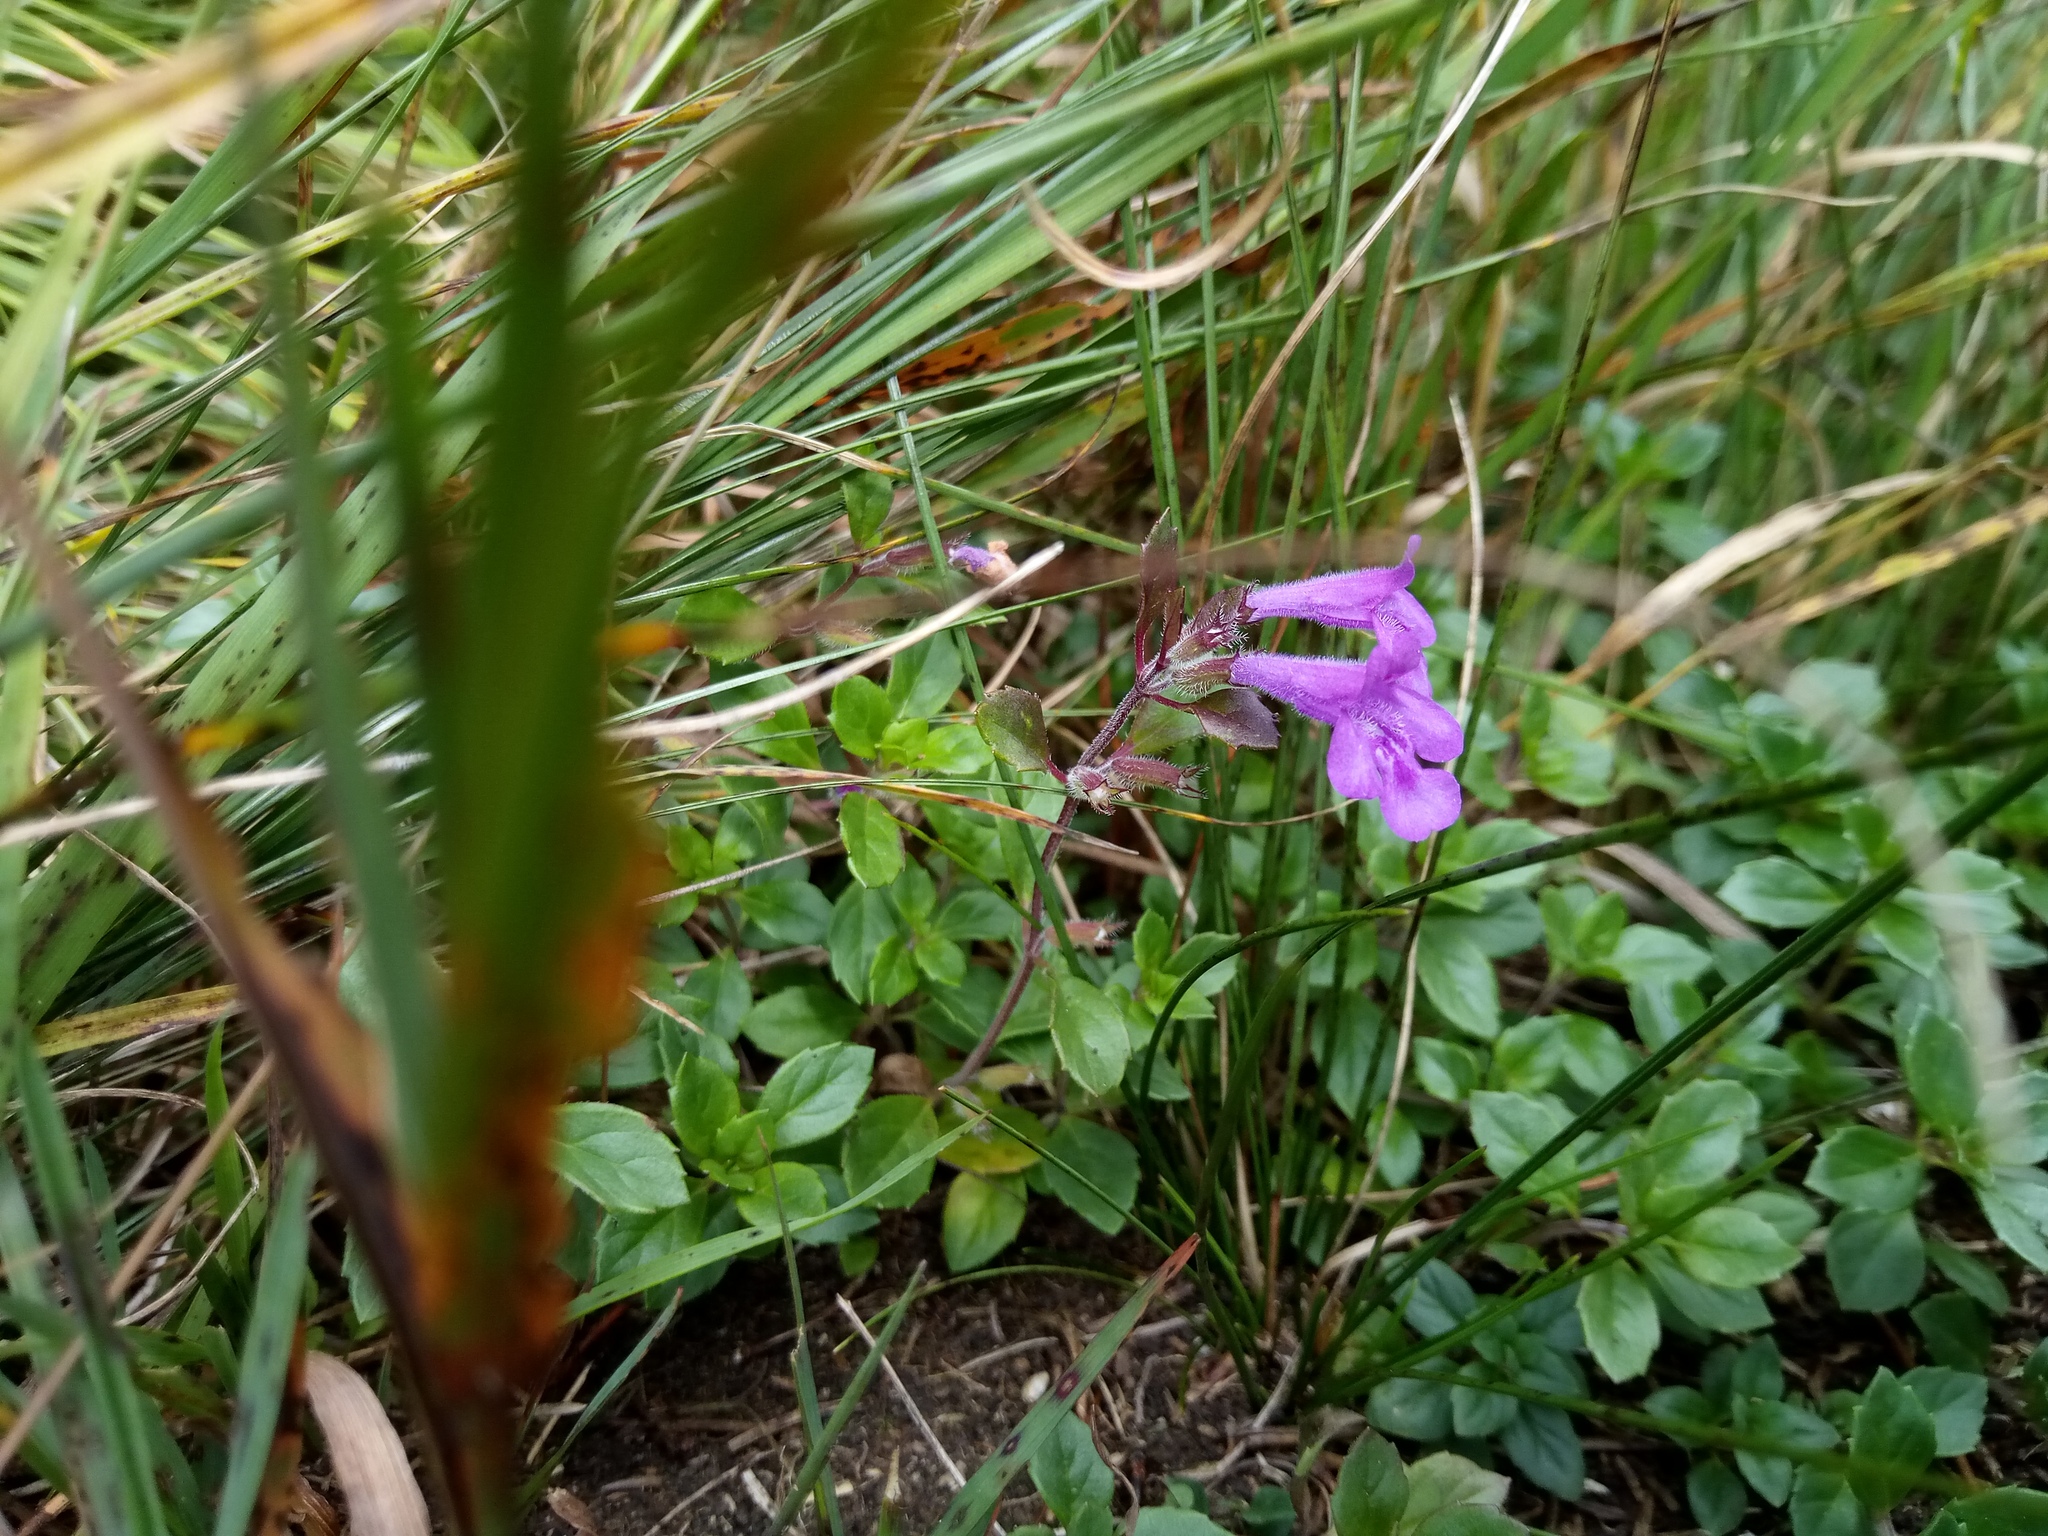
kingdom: Plantae
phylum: Tracheophyta
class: Magnoliopsida
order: Lamiales
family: Lamiaceae
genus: Clinopodium
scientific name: Clinopodium alpinum
